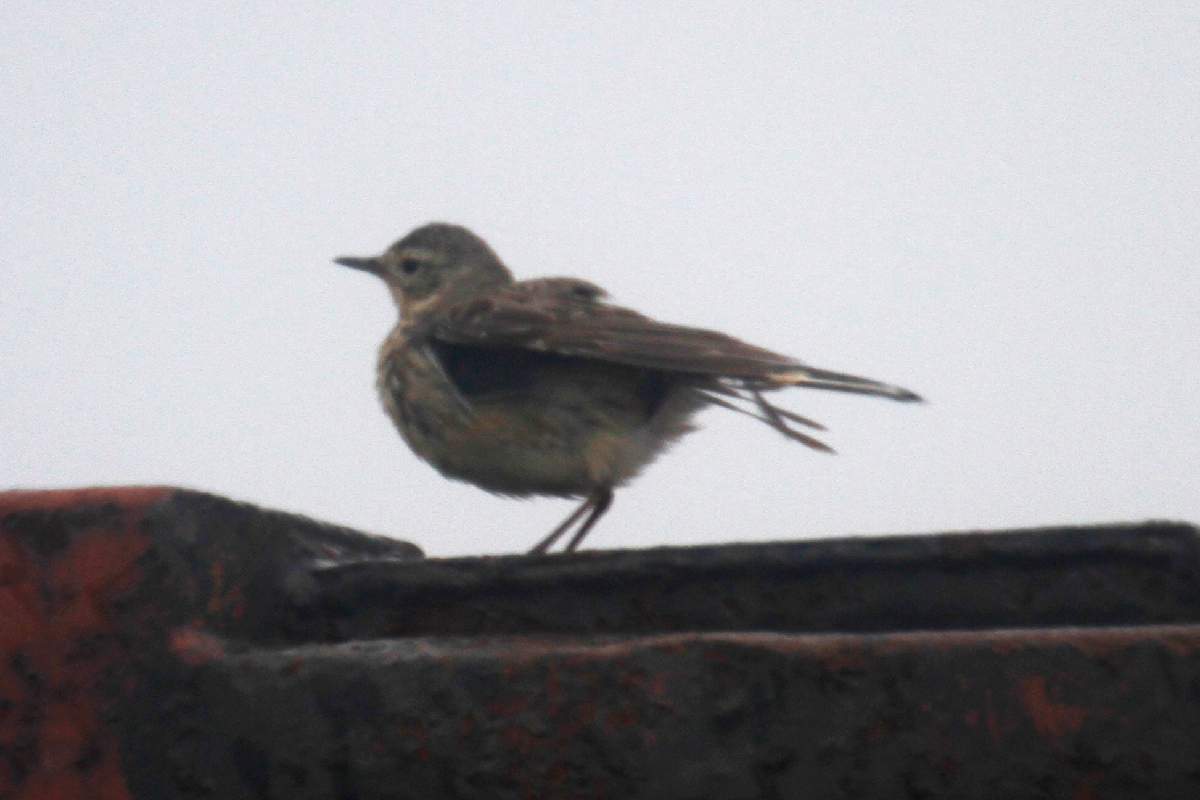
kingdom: Animalia
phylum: Chordata
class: Aves
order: Passeriformes
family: Motacillidae
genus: Anthus
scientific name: Anthus rubescens
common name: Buff-bellied pipit
